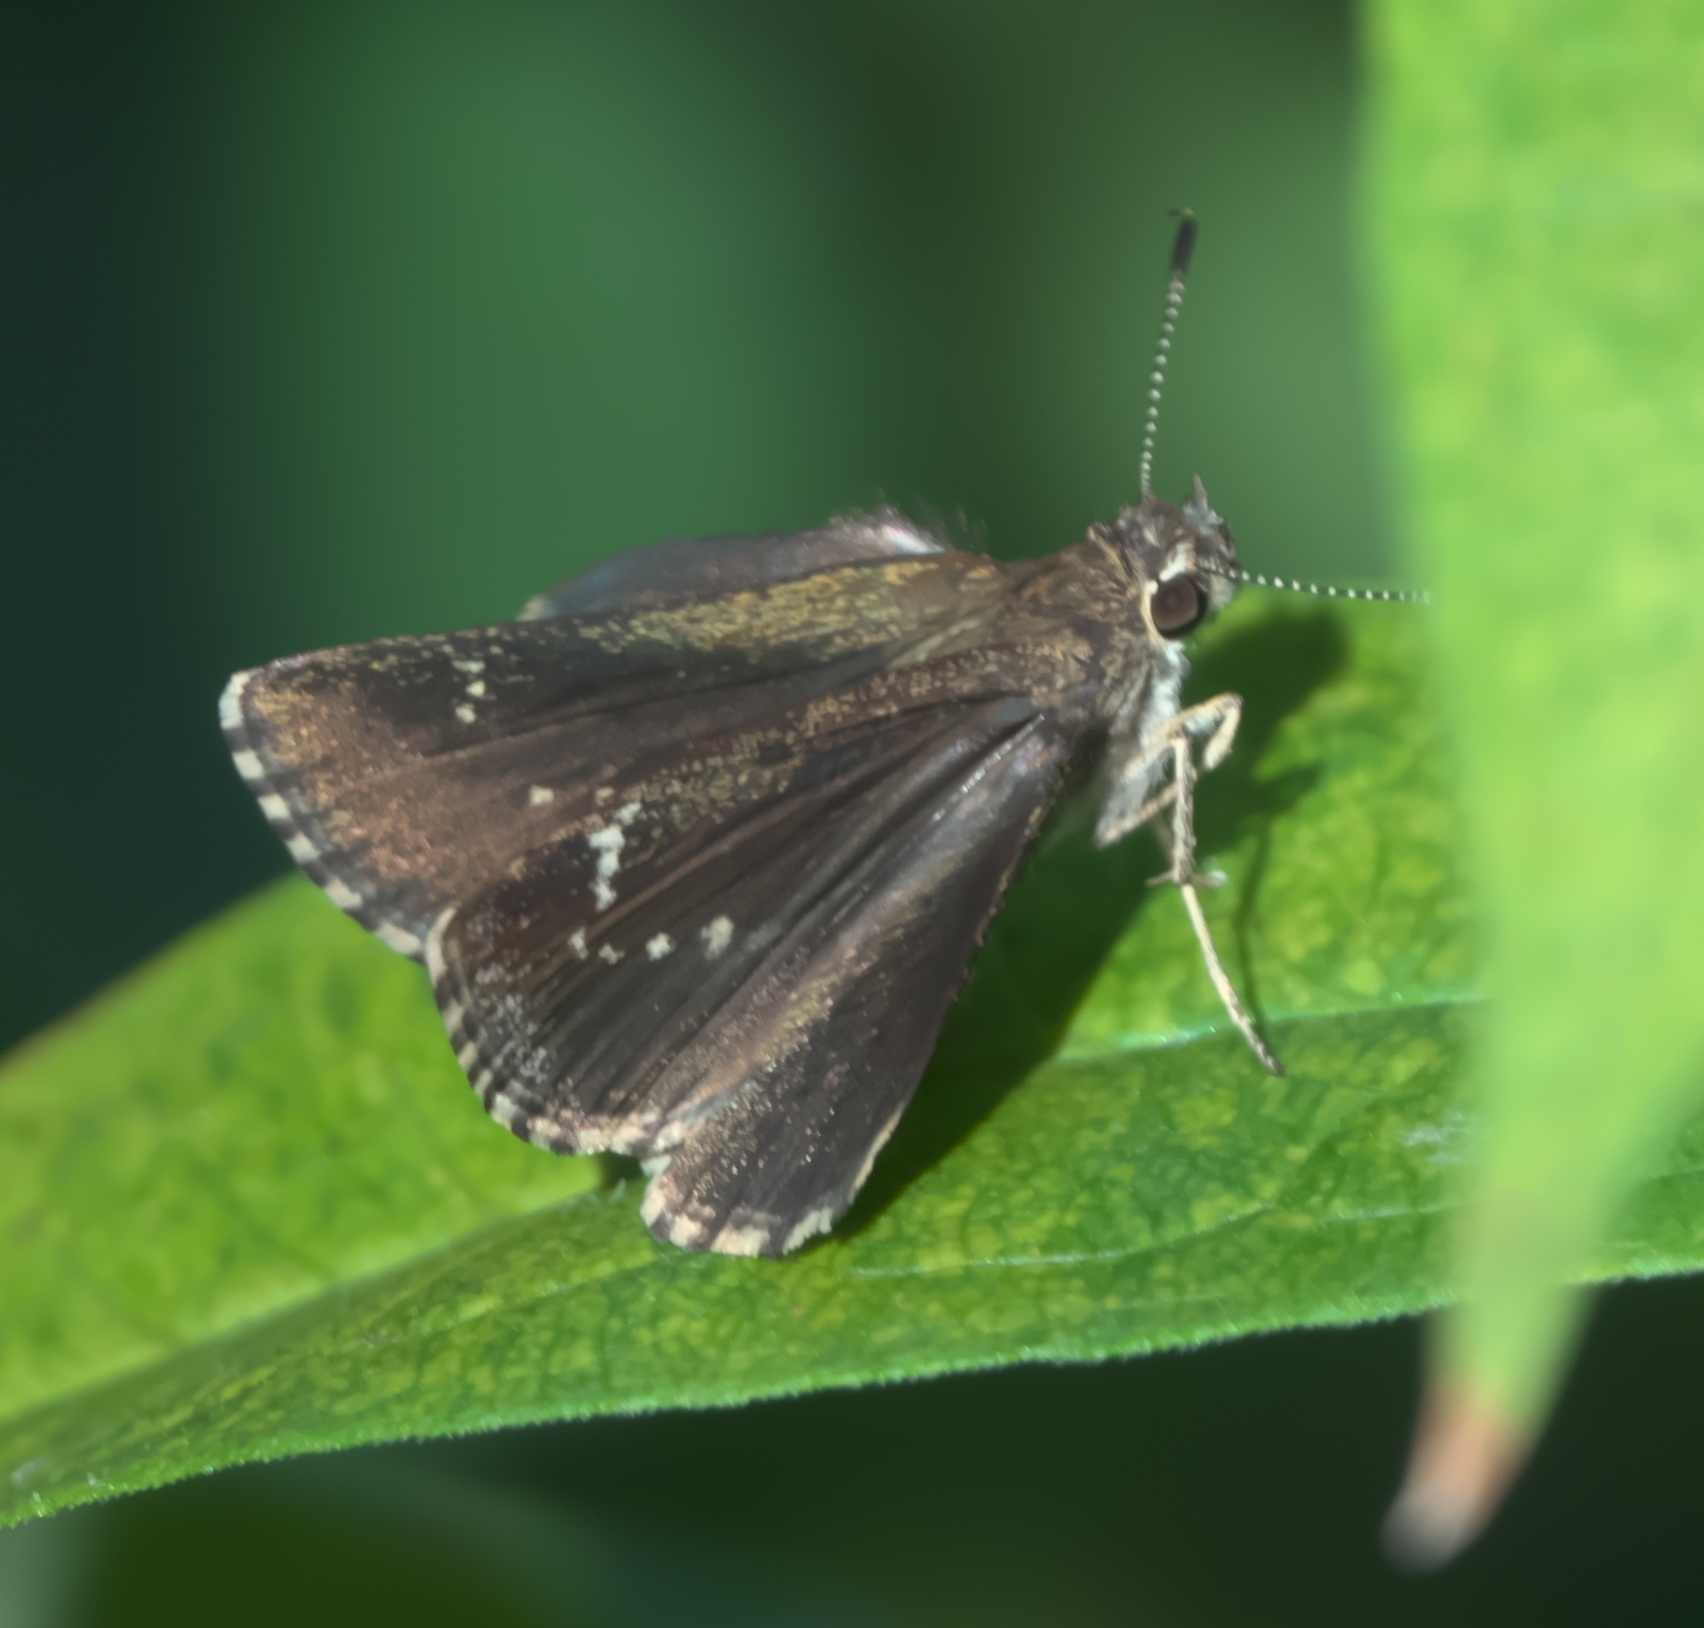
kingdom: Animalia
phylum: Arthropoda
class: Insecta
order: Lepidoptera
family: Hesperiidae
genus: Mastor
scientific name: Mastor celia
